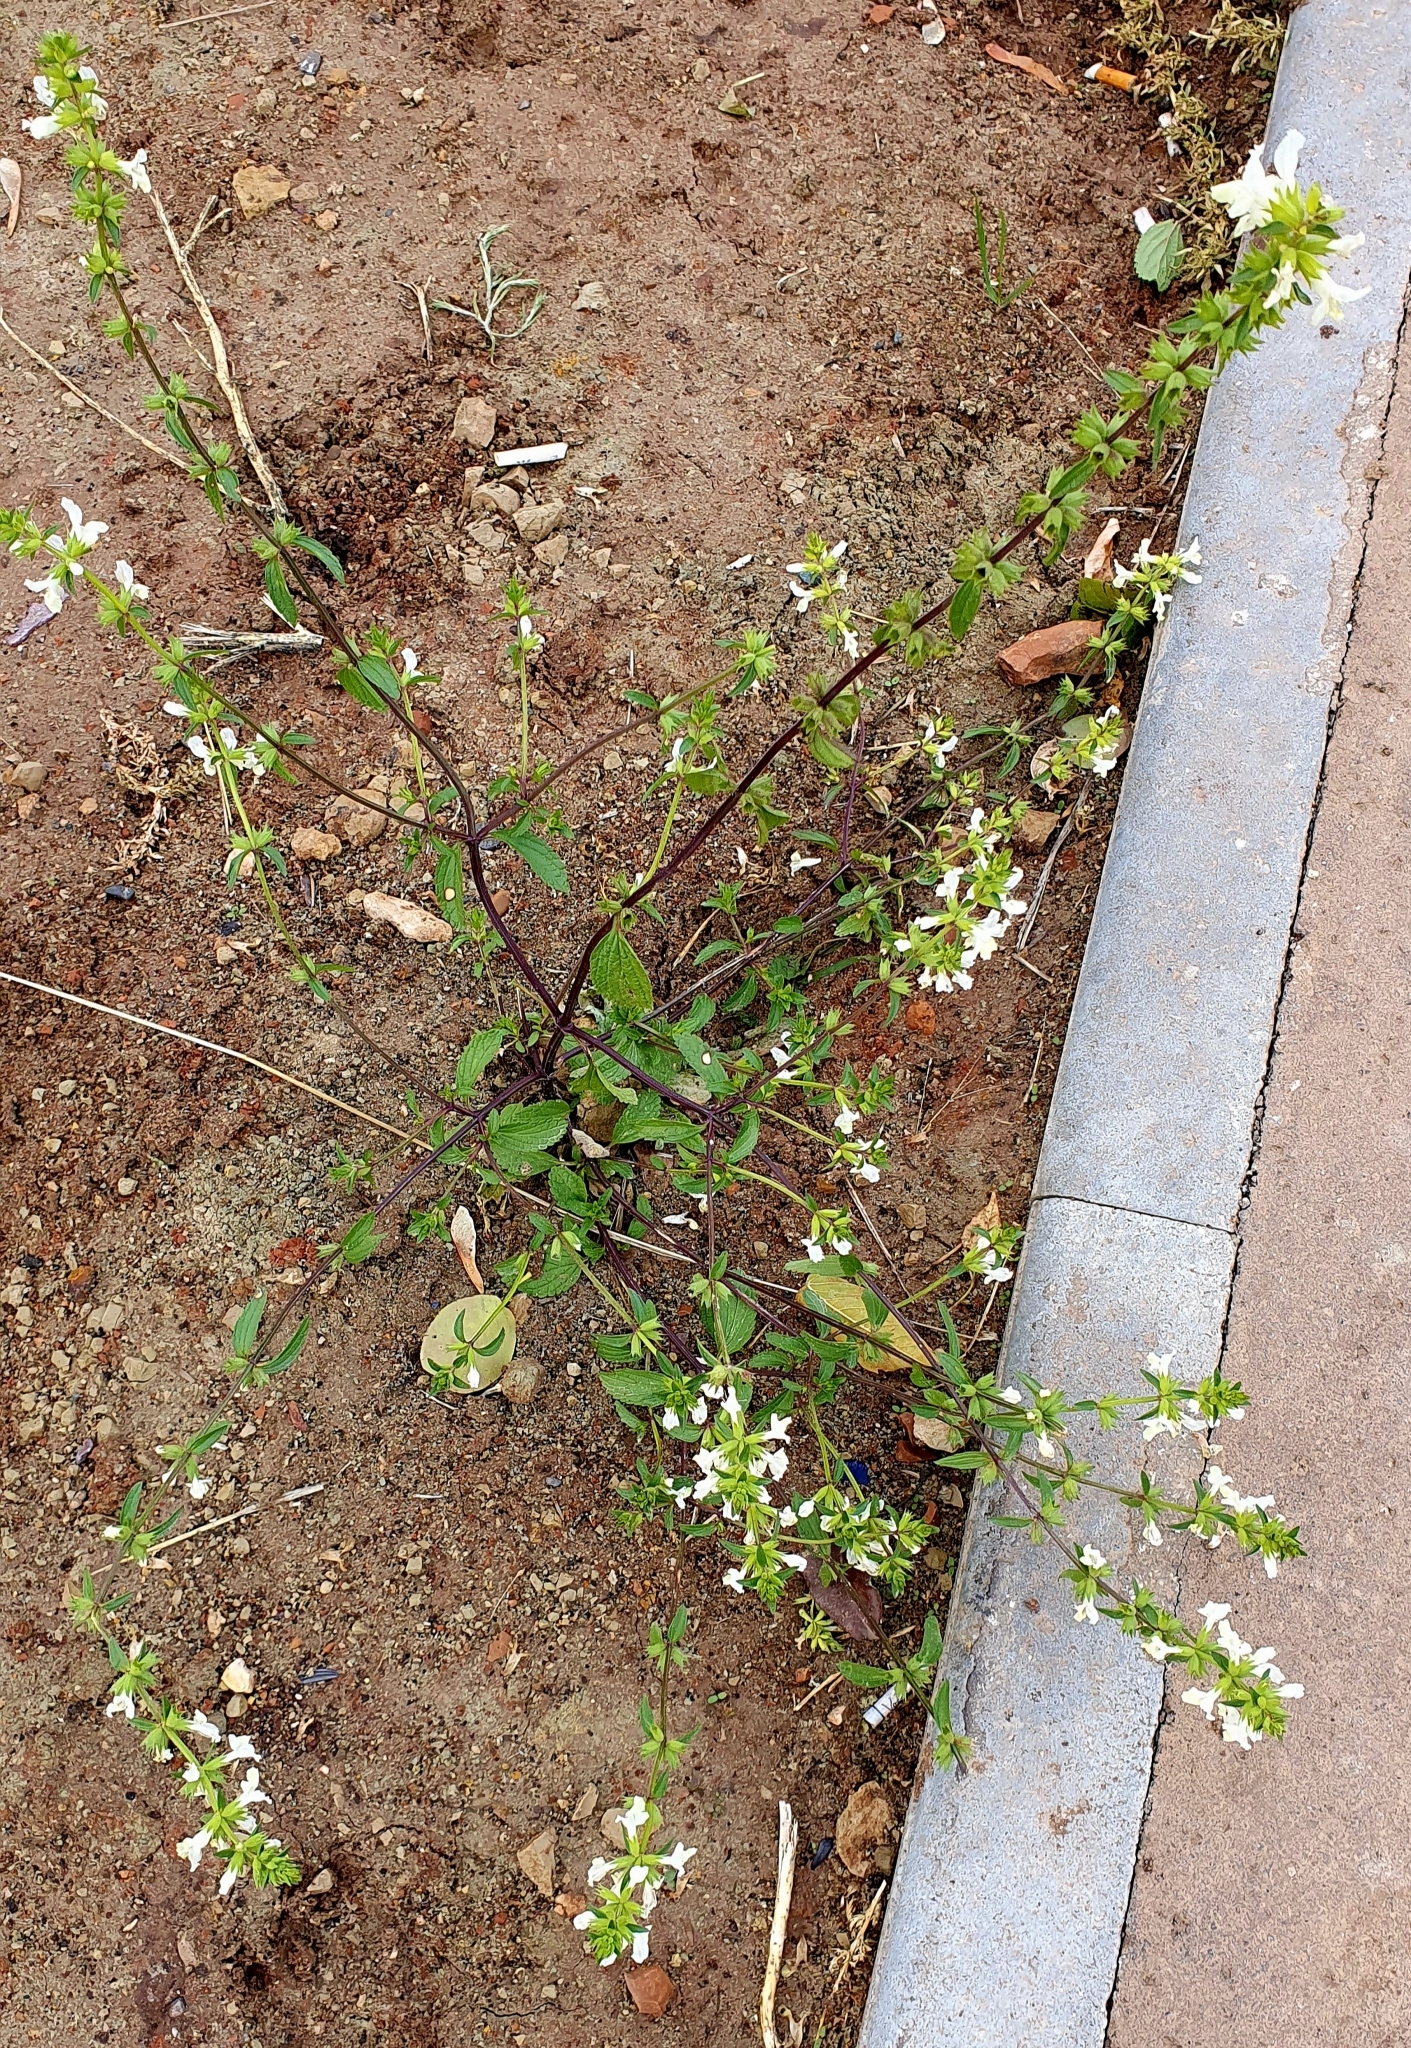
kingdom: Plantae
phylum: Tracheophyta
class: Magnoliopsida
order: Lamiales
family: Lamiaceae
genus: Stachys
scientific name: Stachys annua
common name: Annual yellow-woundwort
